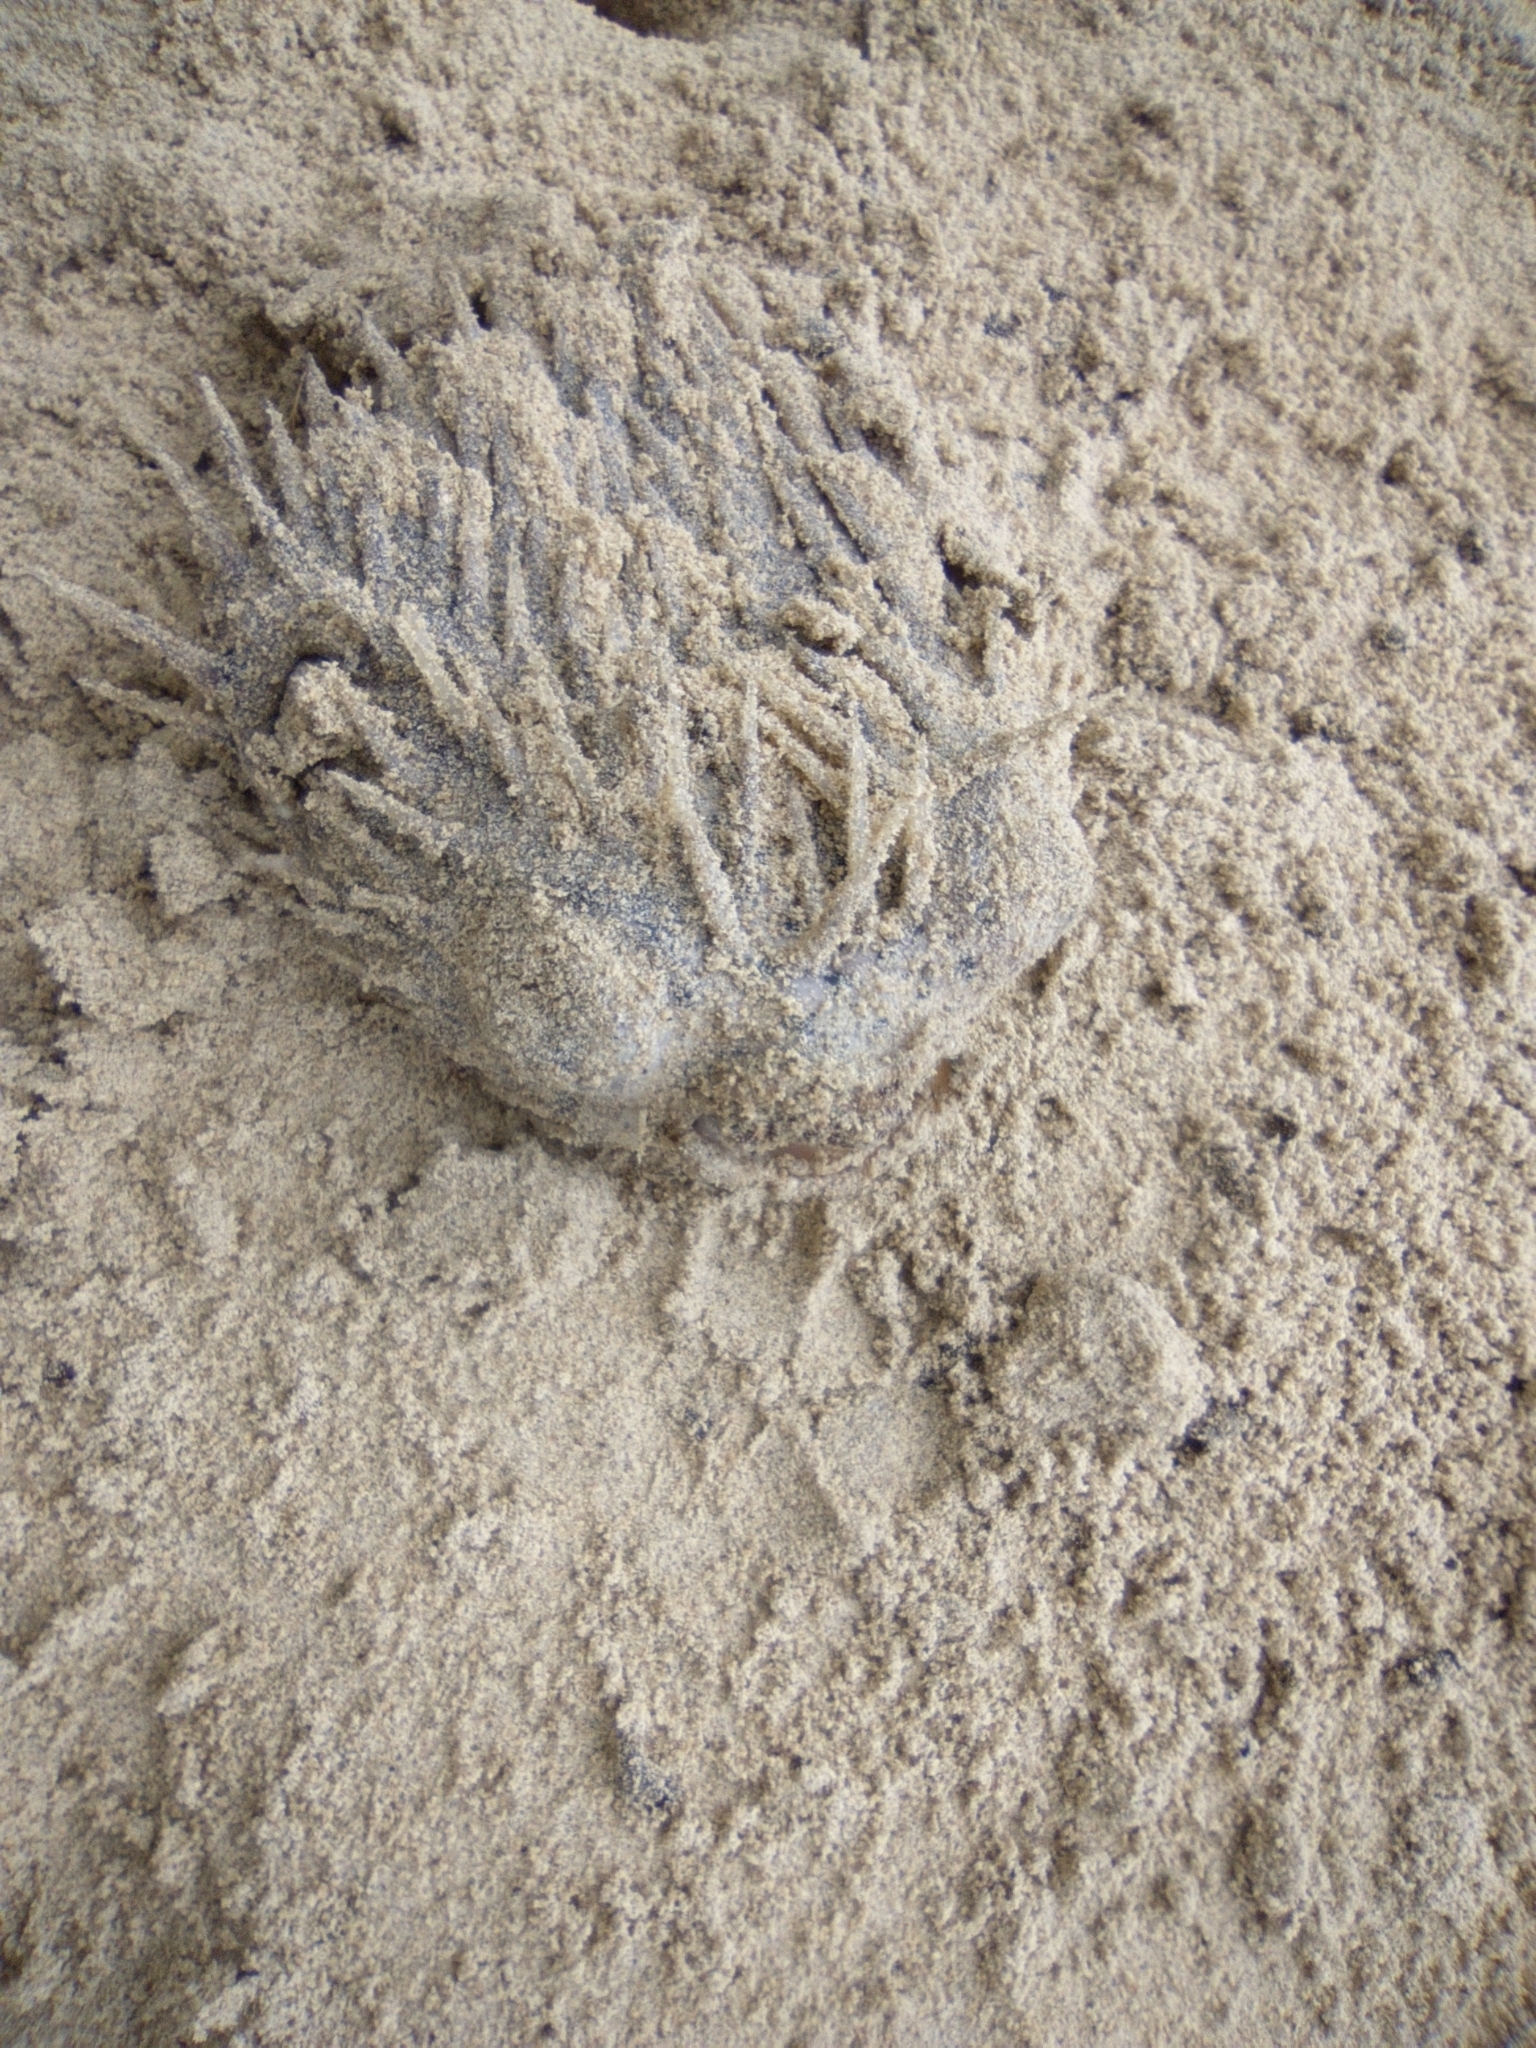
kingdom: Animalia
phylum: Chordata
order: Tetraodontiformes
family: Diodontidae
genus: Diodon
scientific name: Diodon holocanthus
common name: Balloonfish
